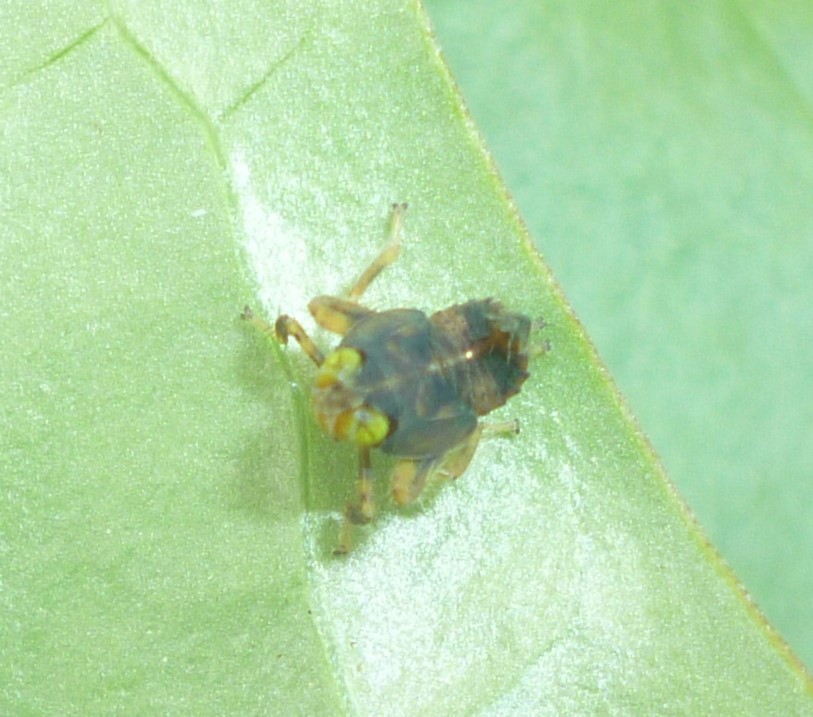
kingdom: Animalia
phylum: Arthropoda
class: Insecta
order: Hemiptera
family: Cicadellidae
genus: Jikradia
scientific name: Jikradia olitoria
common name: Coppery leafhopper
